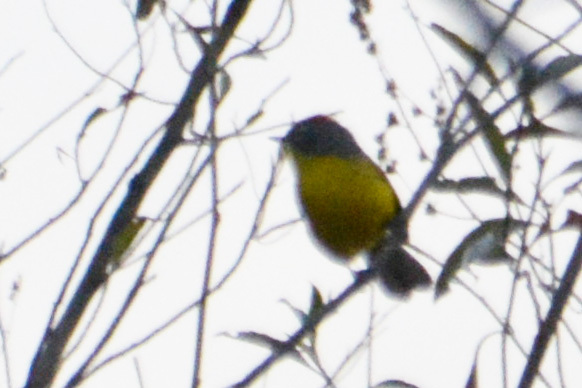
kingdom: Animalia
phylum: Chordata
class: Aves
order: Passeriformes
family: Parulidae
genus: Myioborus
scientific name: Myioborus brunniceps
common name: Brown-capped whitestart
